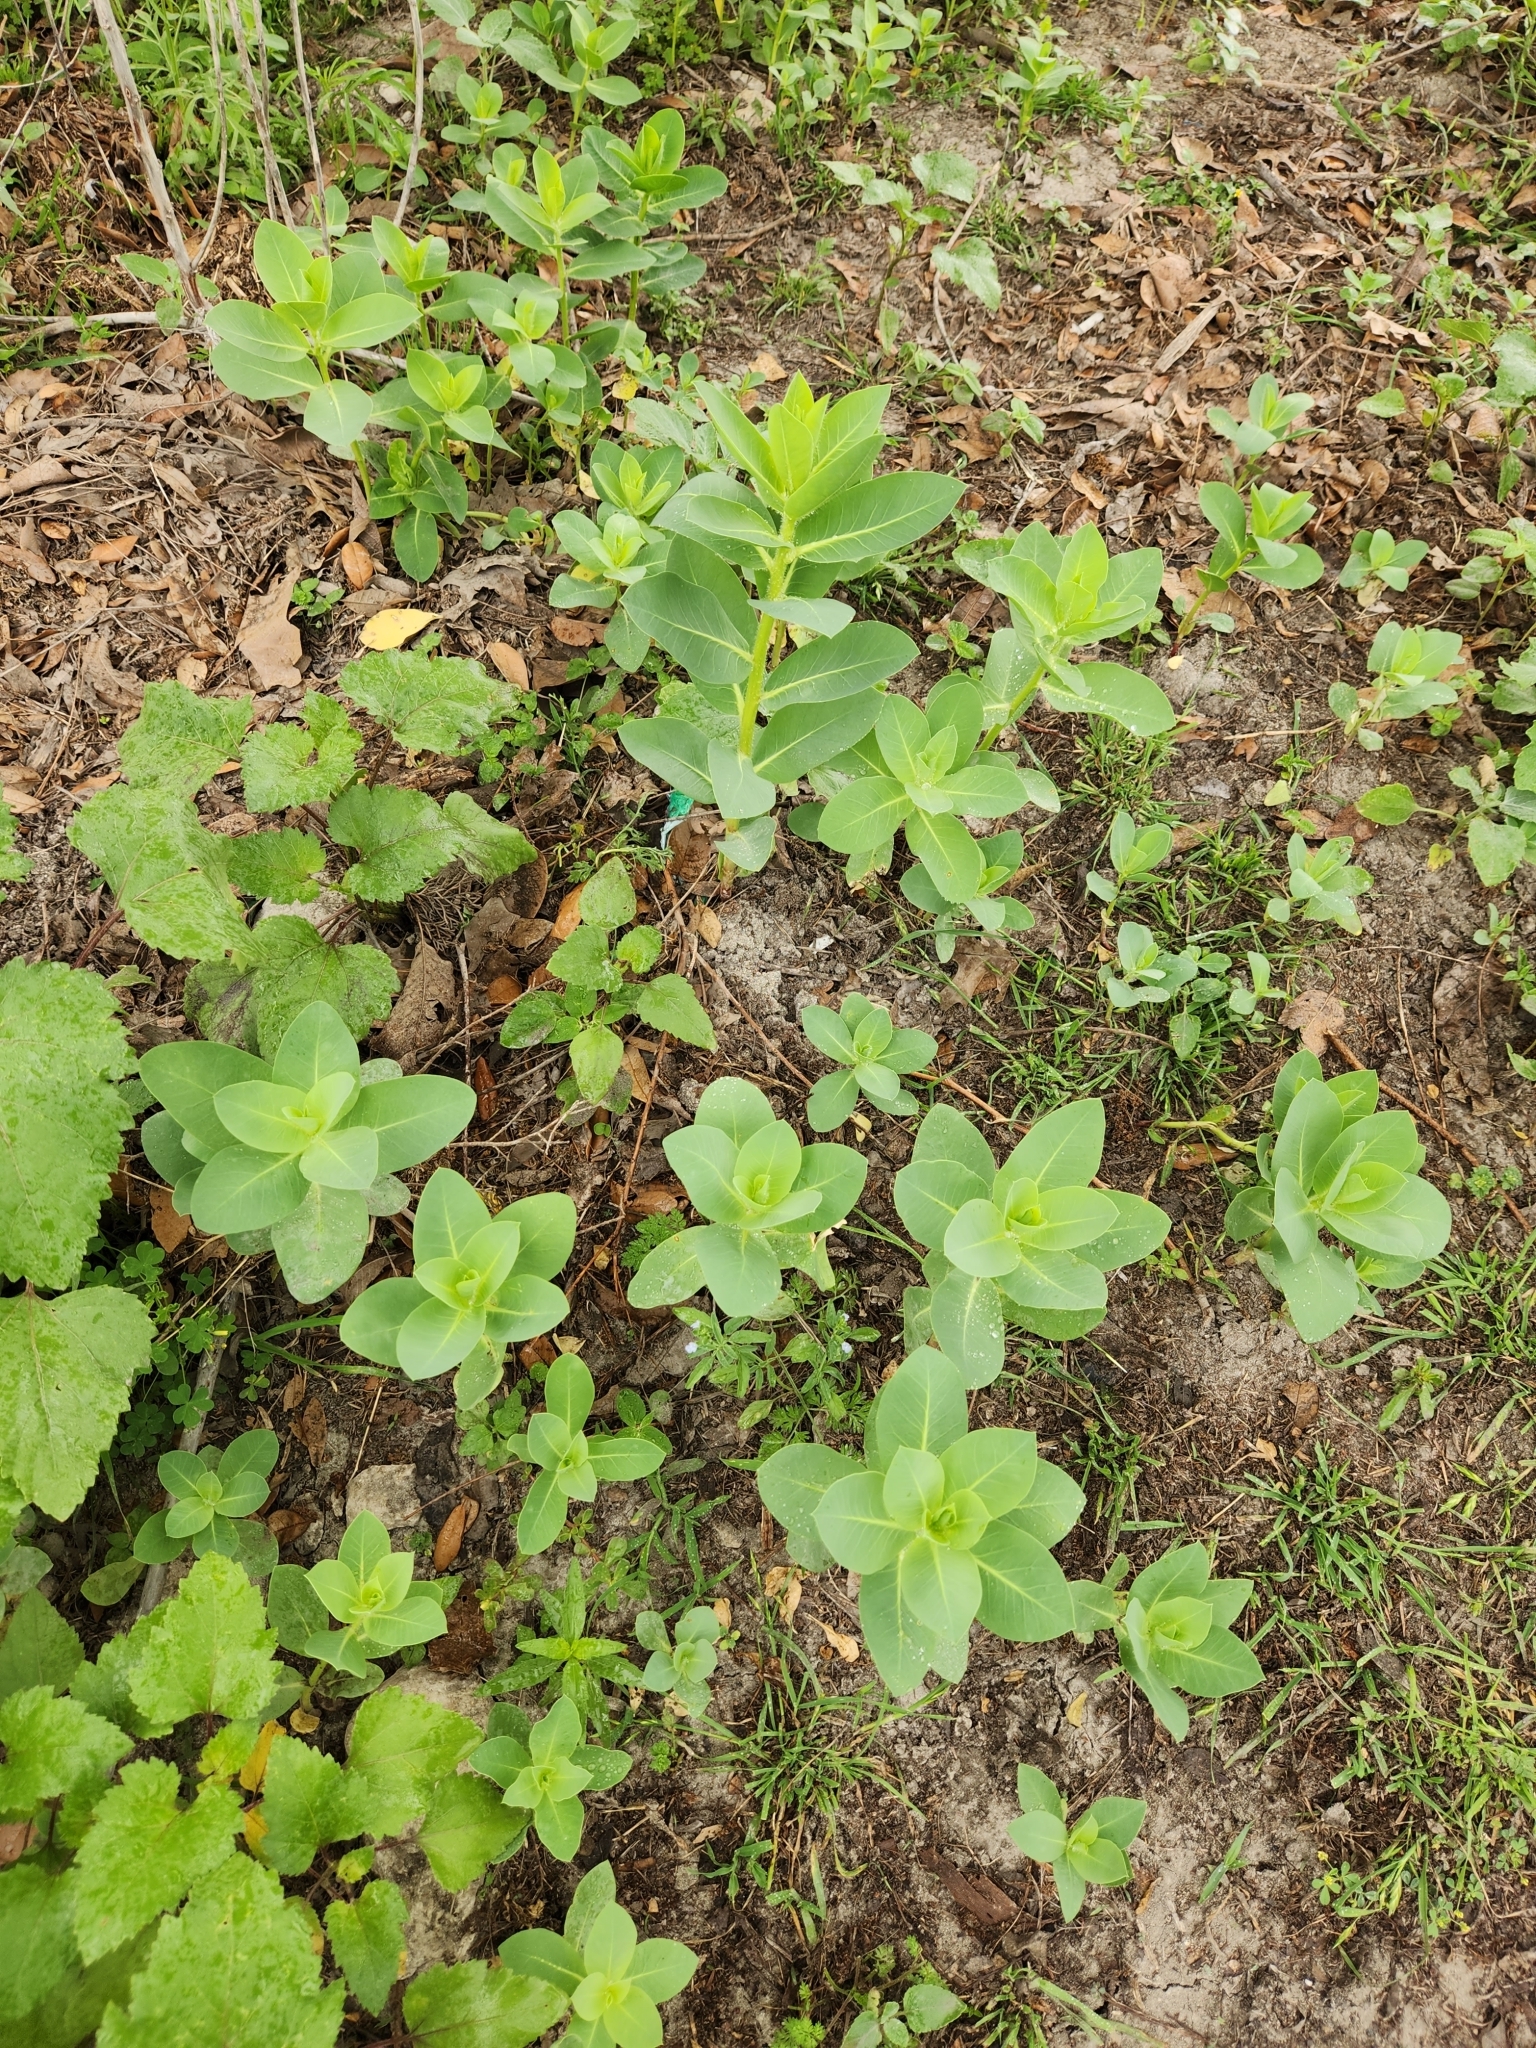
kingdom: Plantae
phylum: Tracheophyta
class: Magnoliopsida
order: Malpighiales
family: Euphorbiaceae
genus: Euphorbia
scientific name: Euphorbia marginata
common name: Ghostweed
